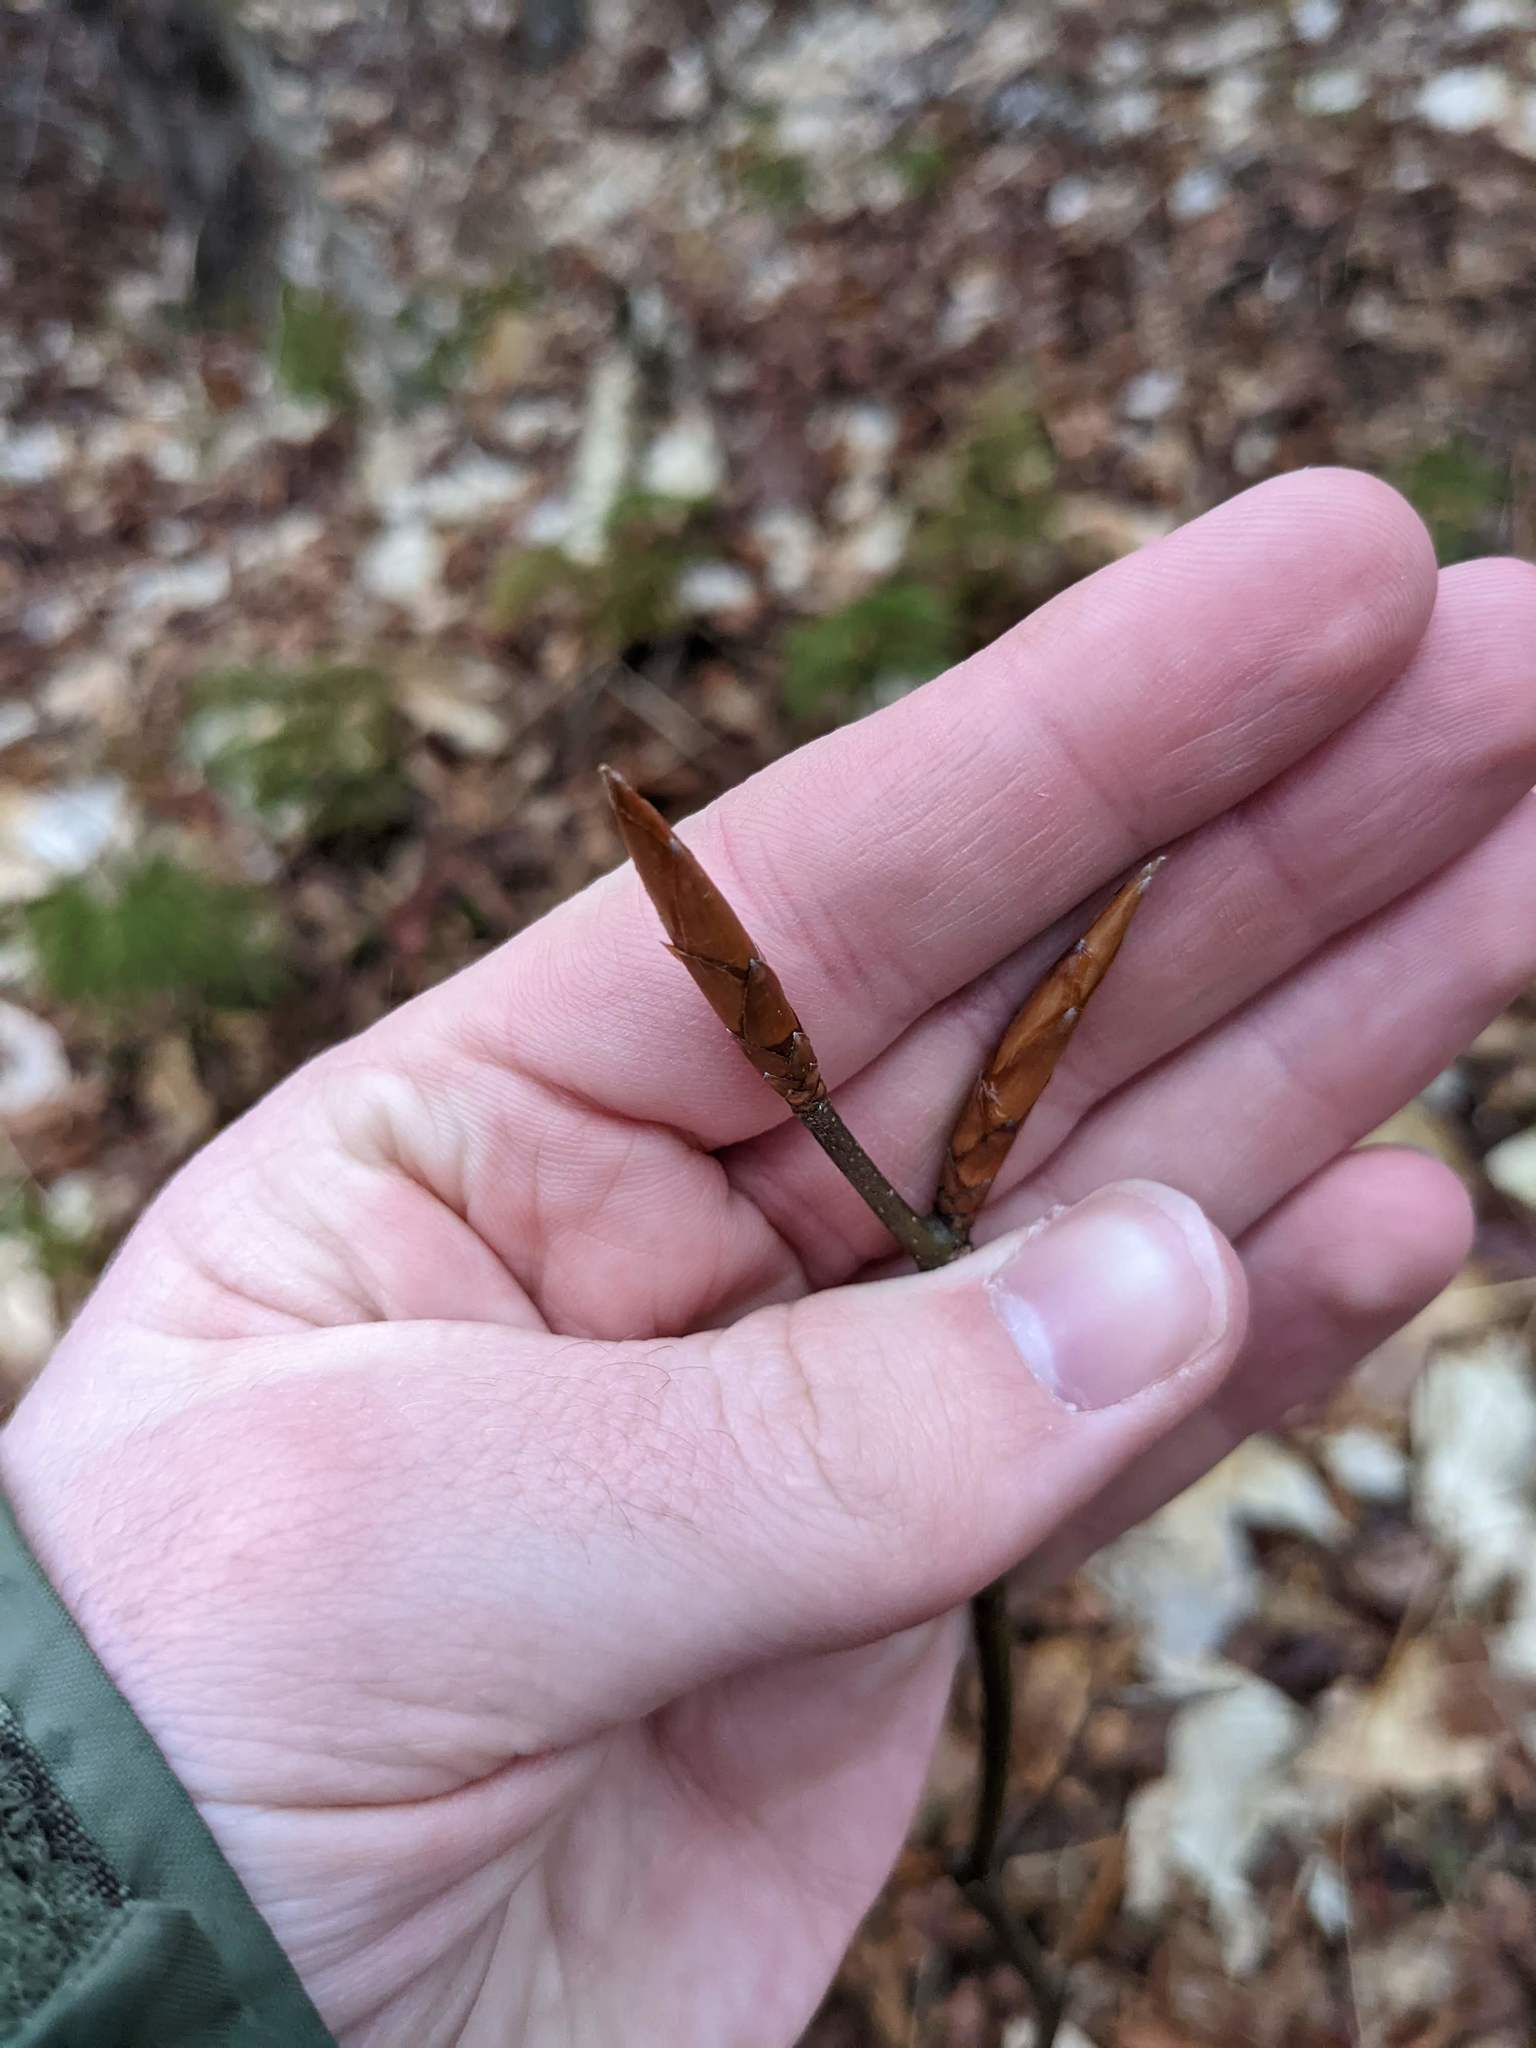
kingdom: Plantae
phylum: Tracheophyta
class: Magnoliopsida
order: Fagales
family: Fagaceae
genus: Fagus
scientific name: Fagus grandifolia
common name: American beech
